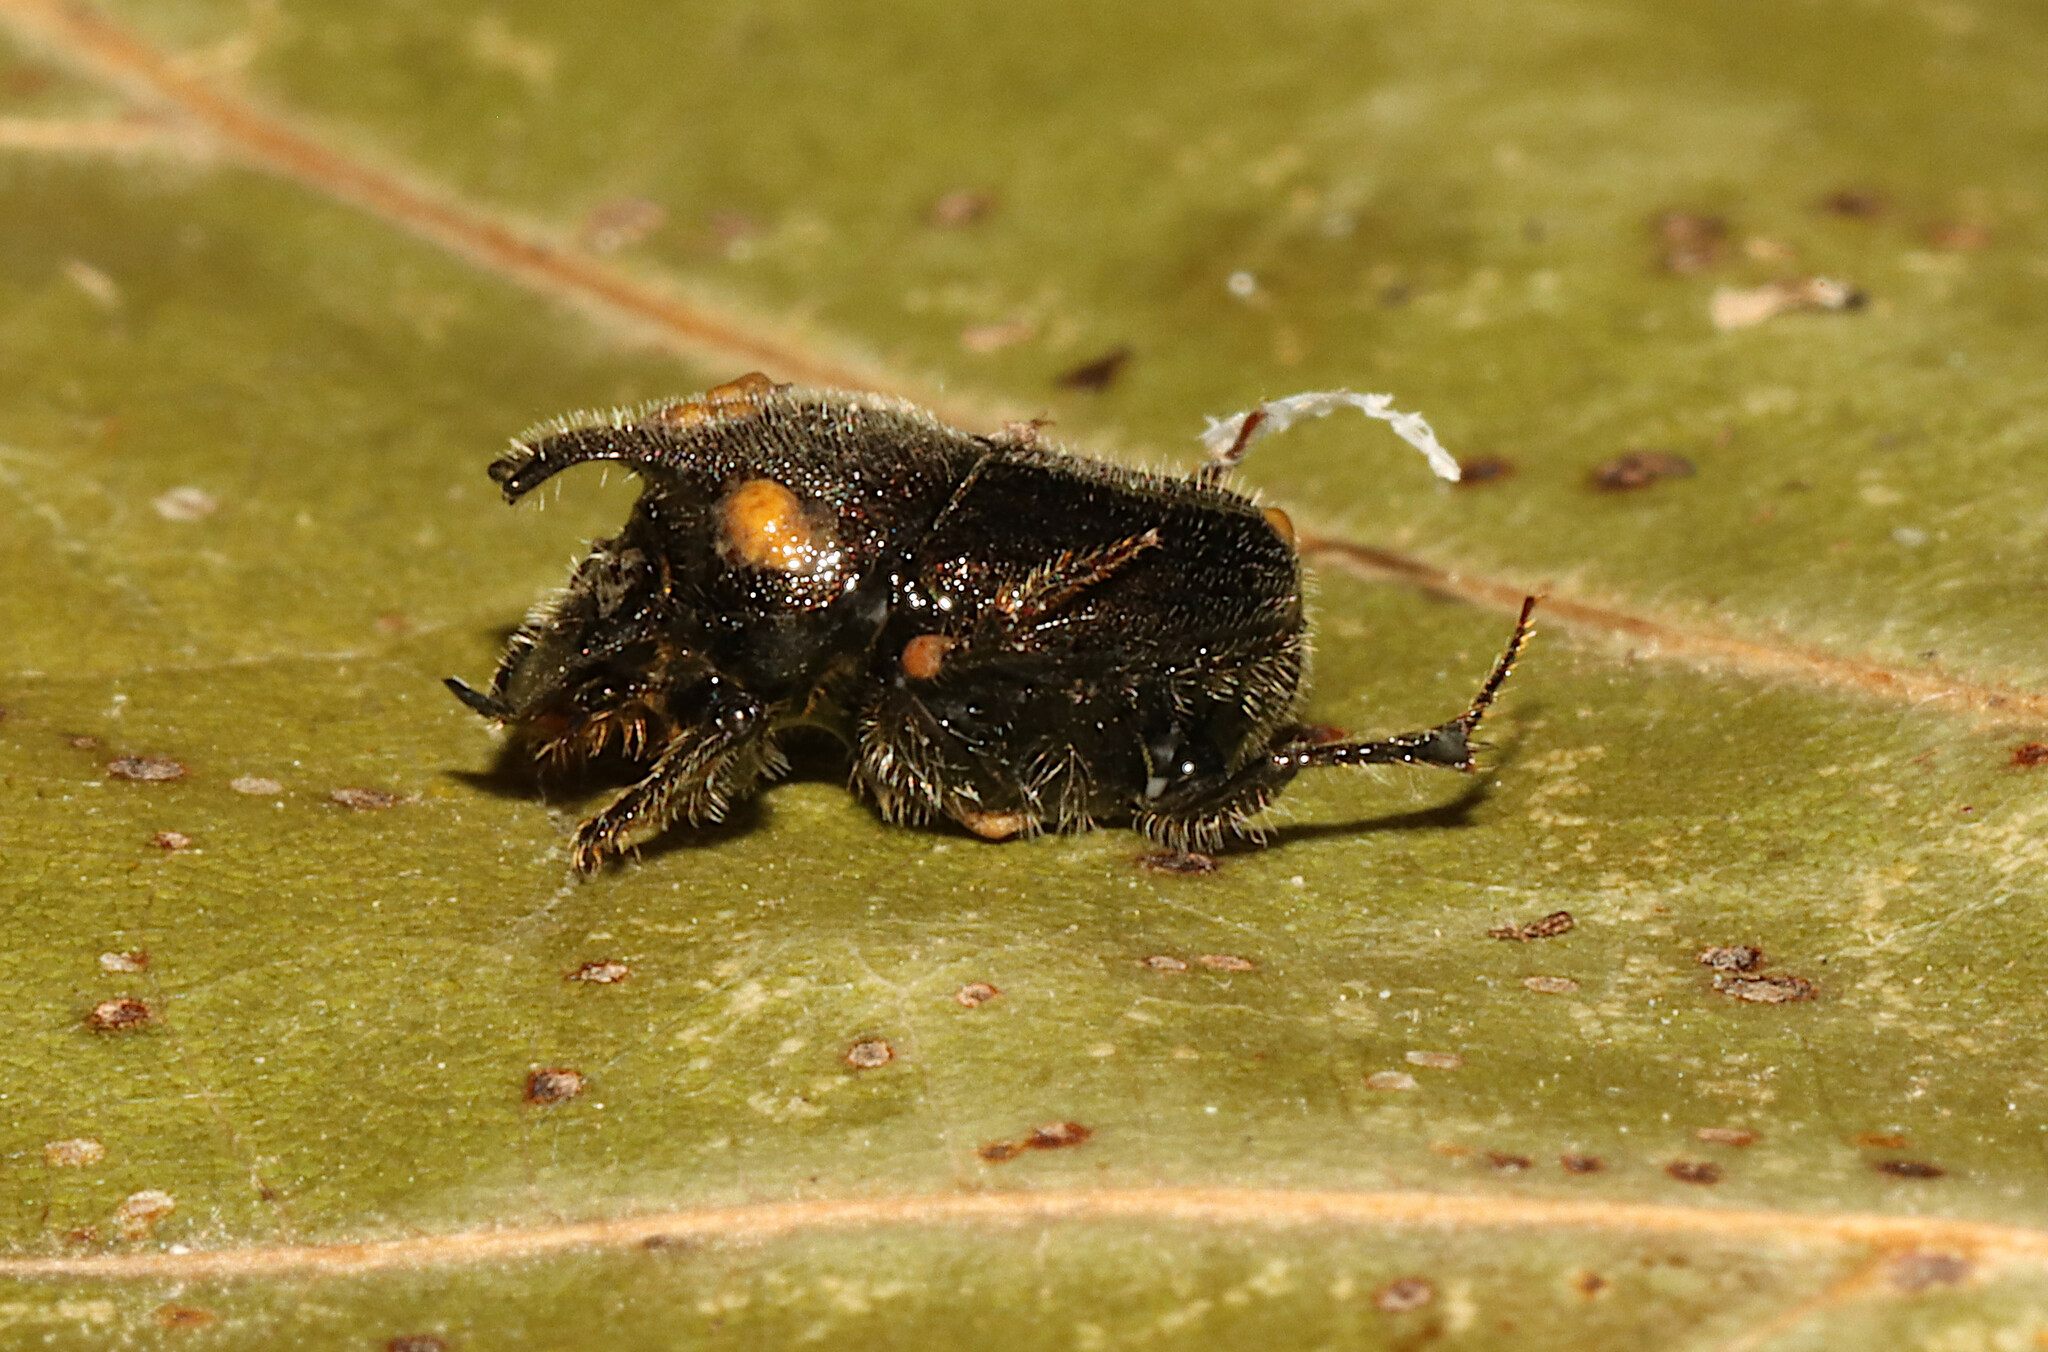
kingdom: Animalia
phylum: Arthropoda
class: Insecta
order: Coleoptera
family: Scarabaeidae
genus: Onthophagus
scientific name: Onthophagus hecate
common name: Scooped scarab
